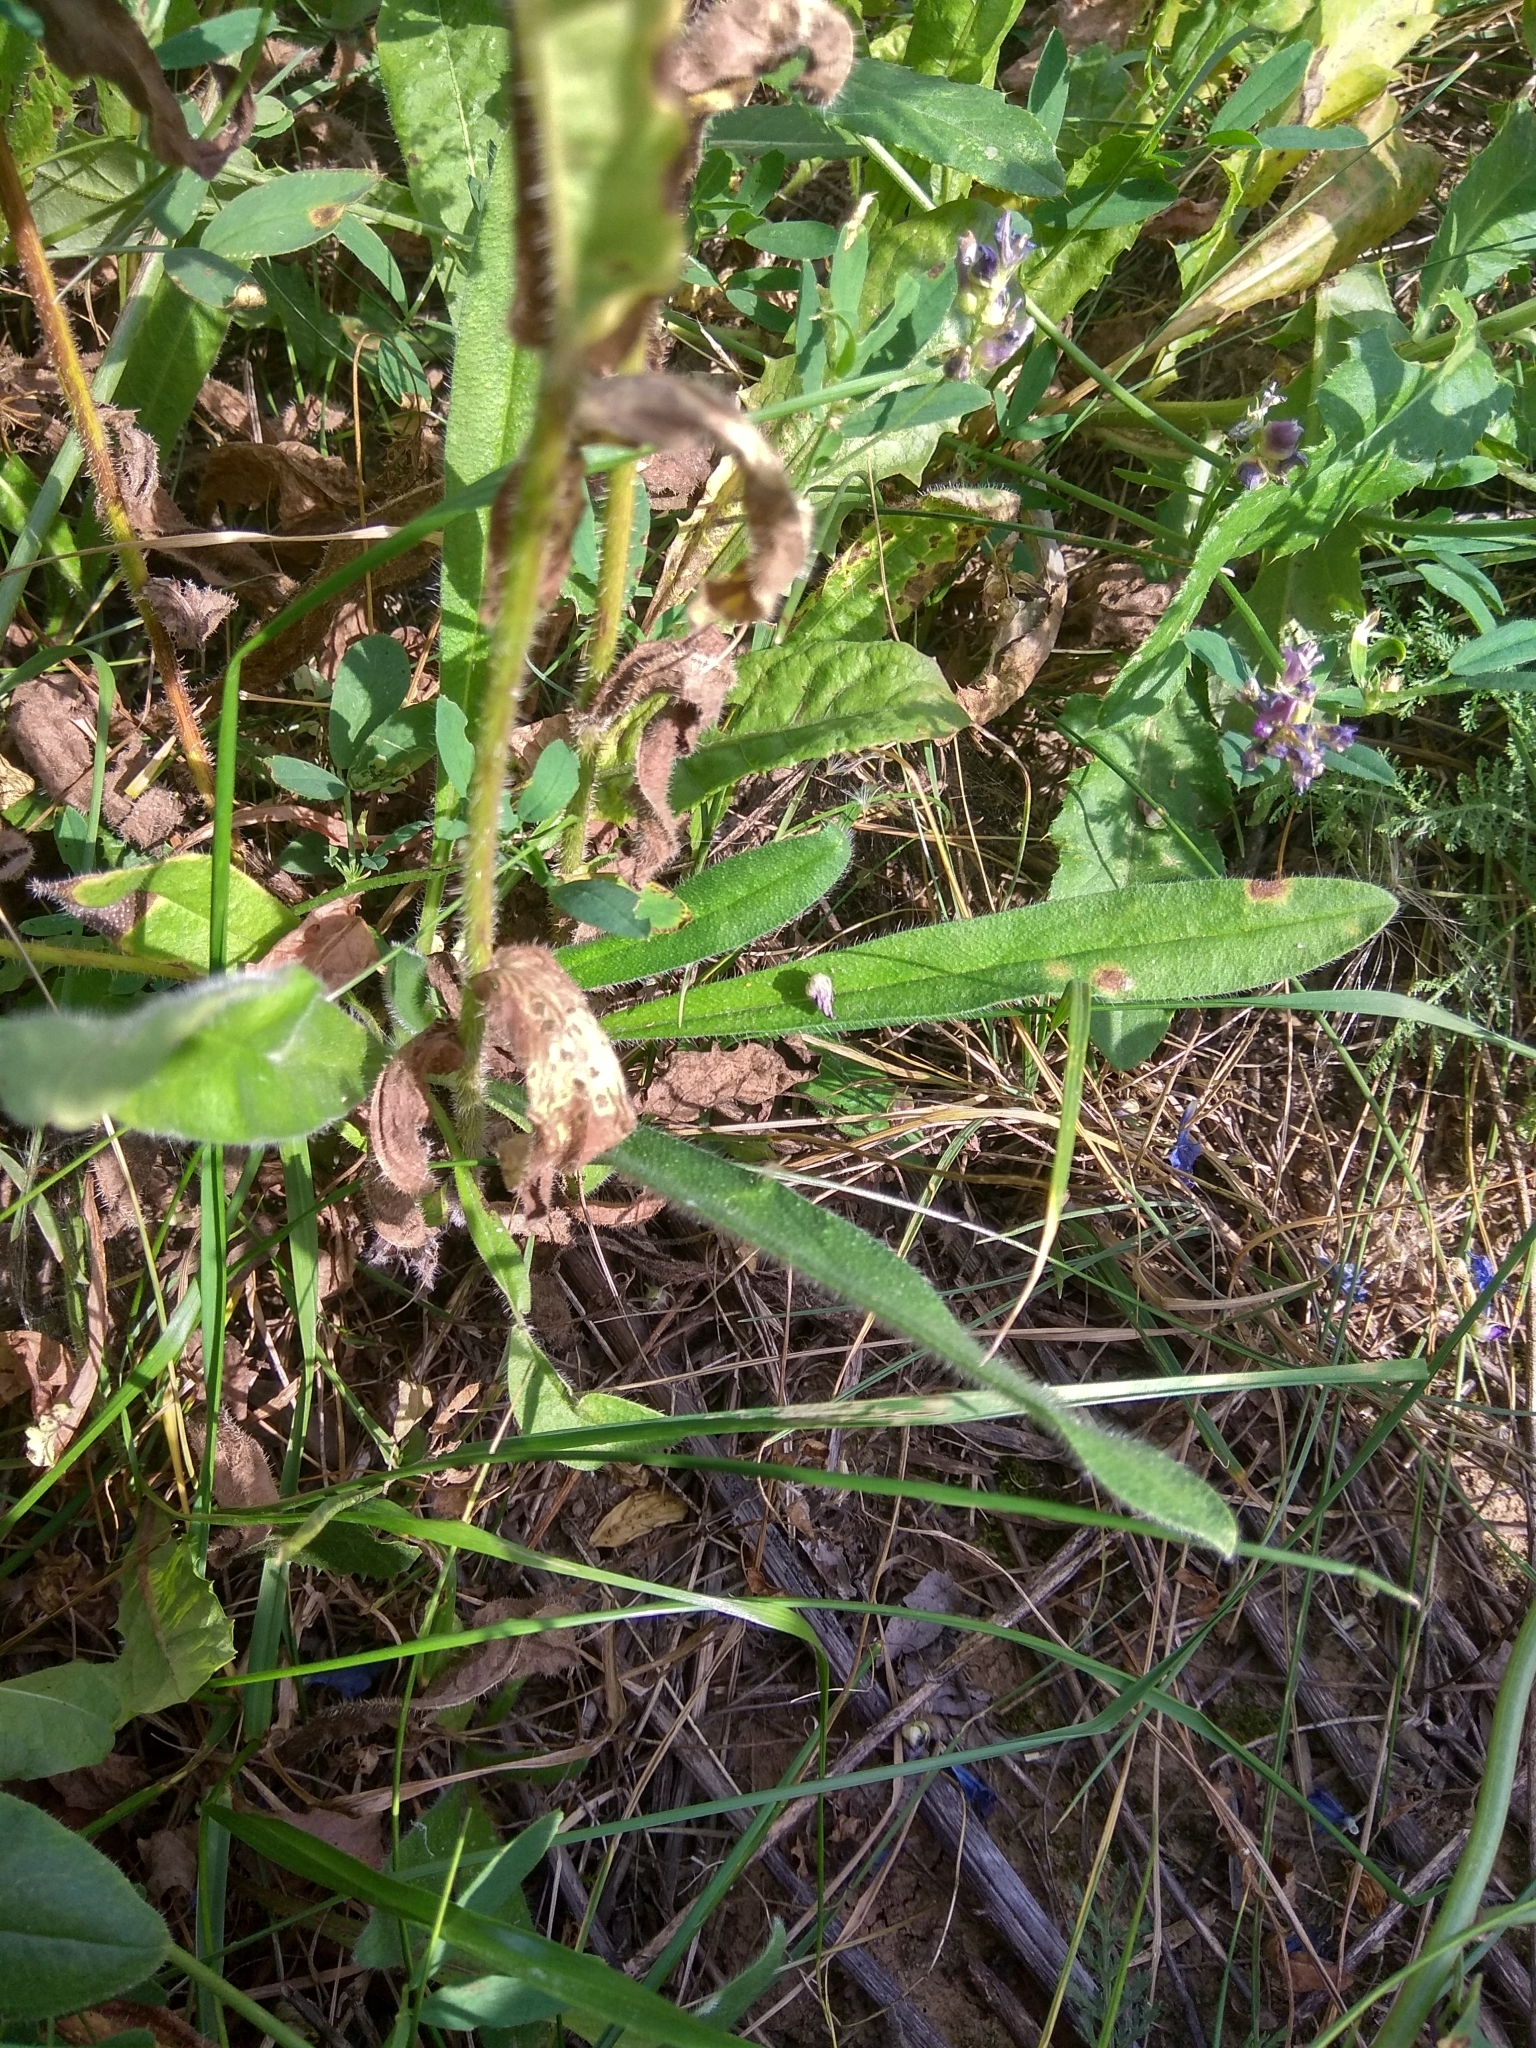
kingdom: Plantae
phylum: Tracheophyta
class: Magnoliopsida
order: Asterales
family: Asteraceae
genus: Picris
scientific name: Picris hieracioides
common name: Hawkweed oxtongue
